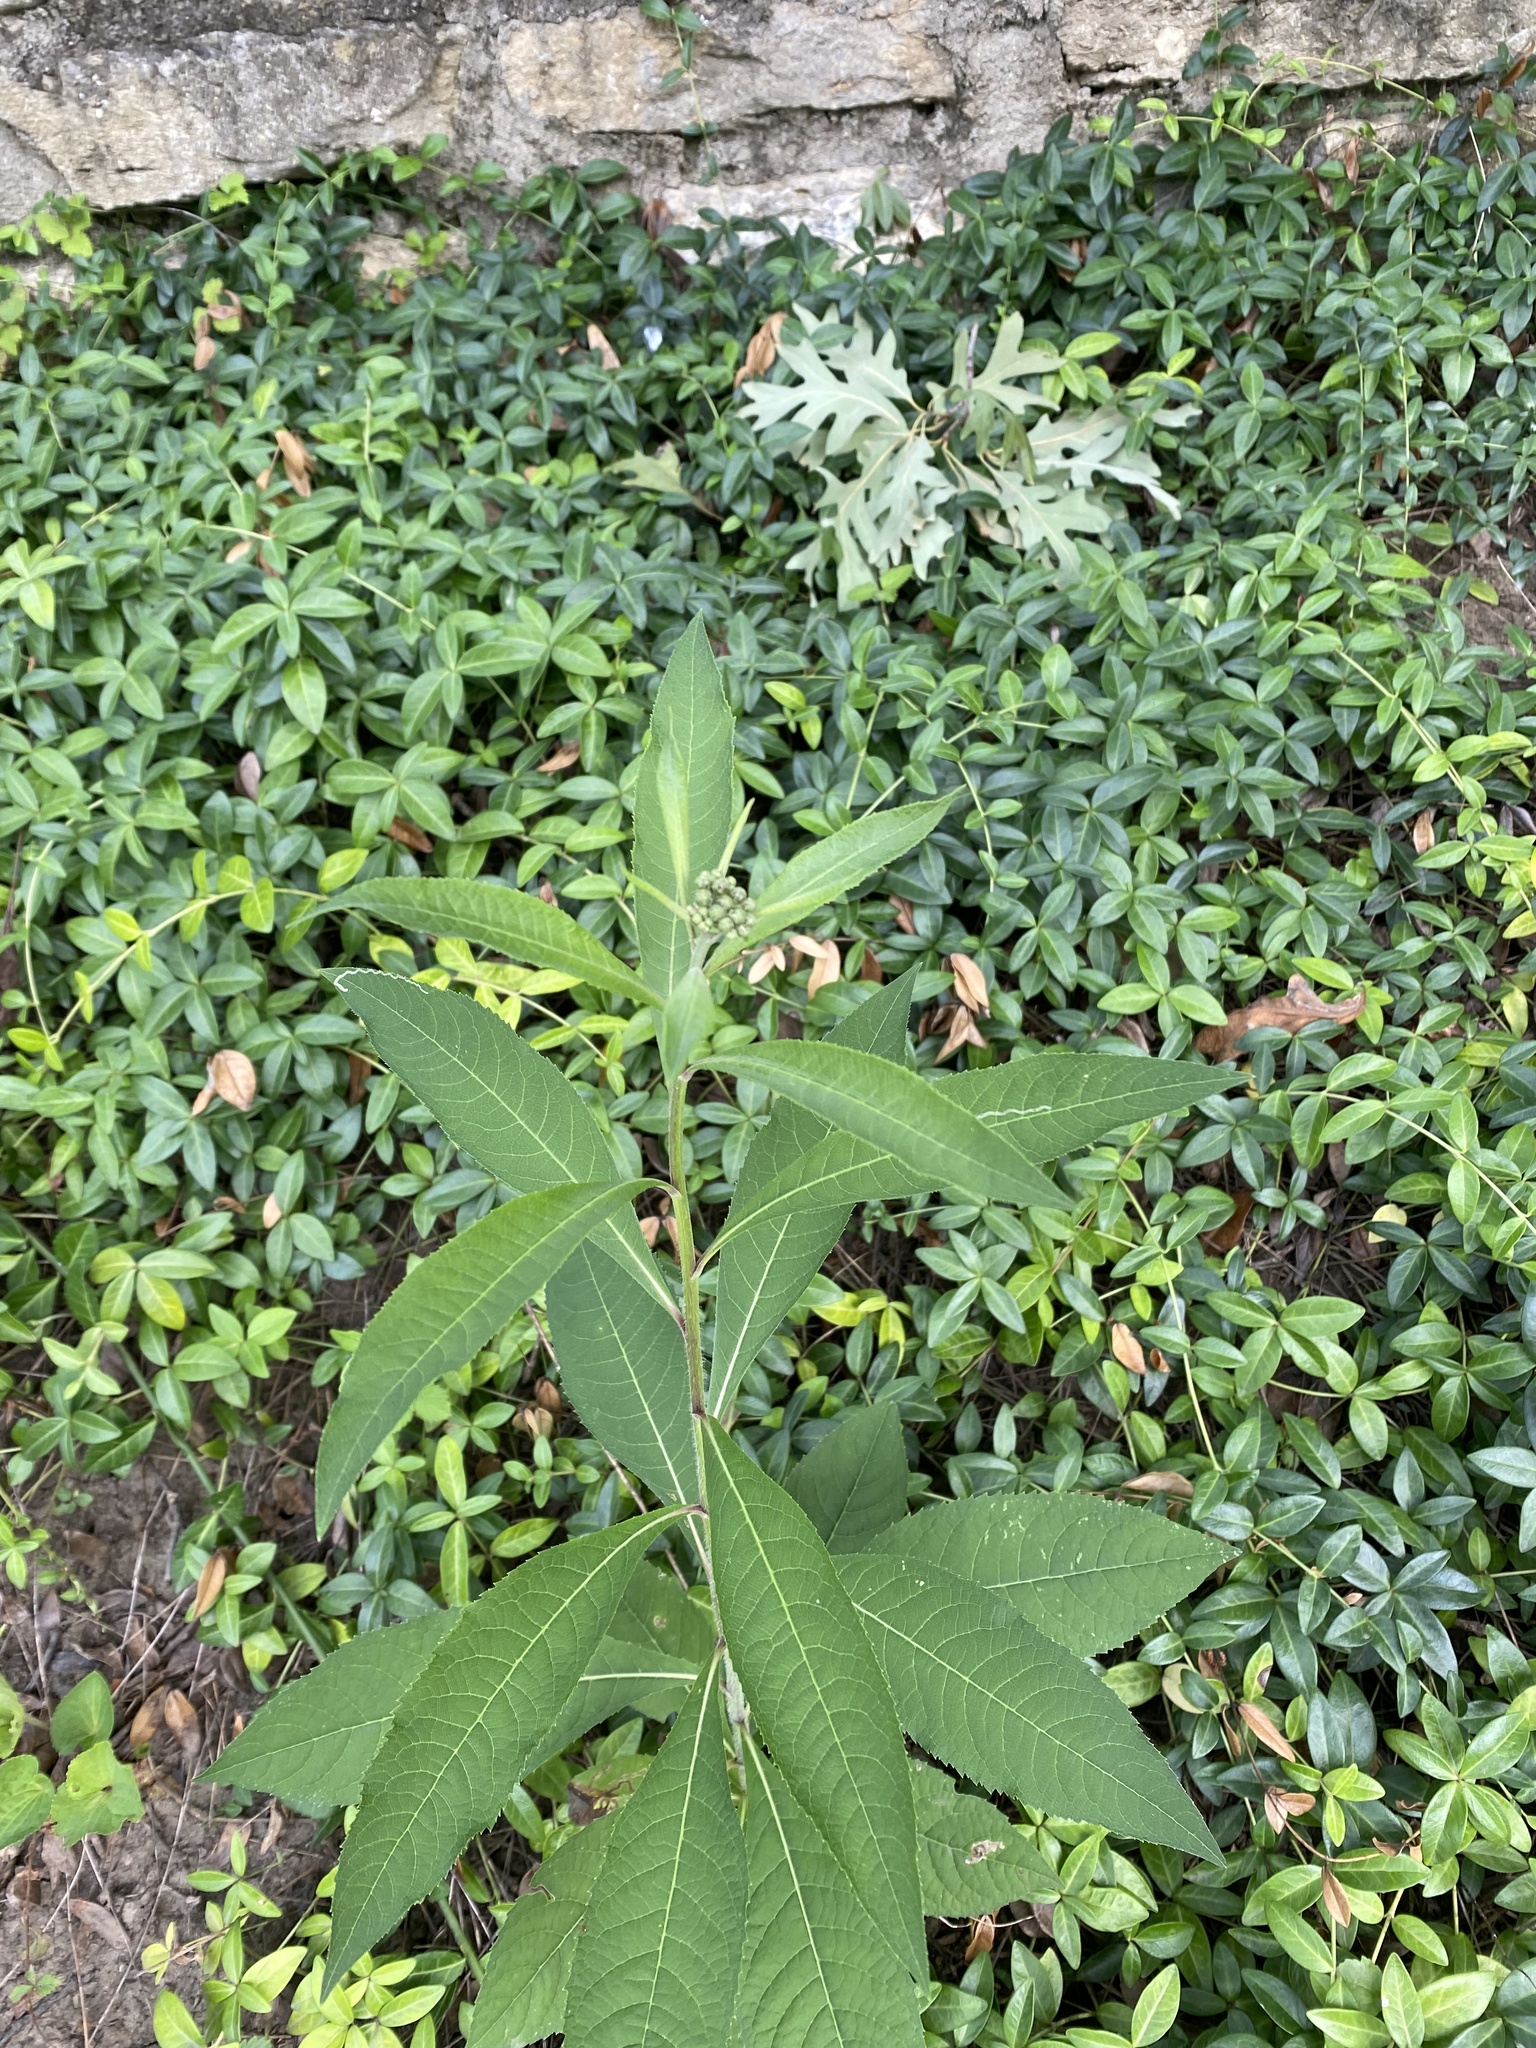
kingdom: Plantae
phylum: Tracheophyta
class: Magnoliopsida
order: Asterales
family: Asteraceae
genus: Vernonia
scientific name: Vernonia gigantea
